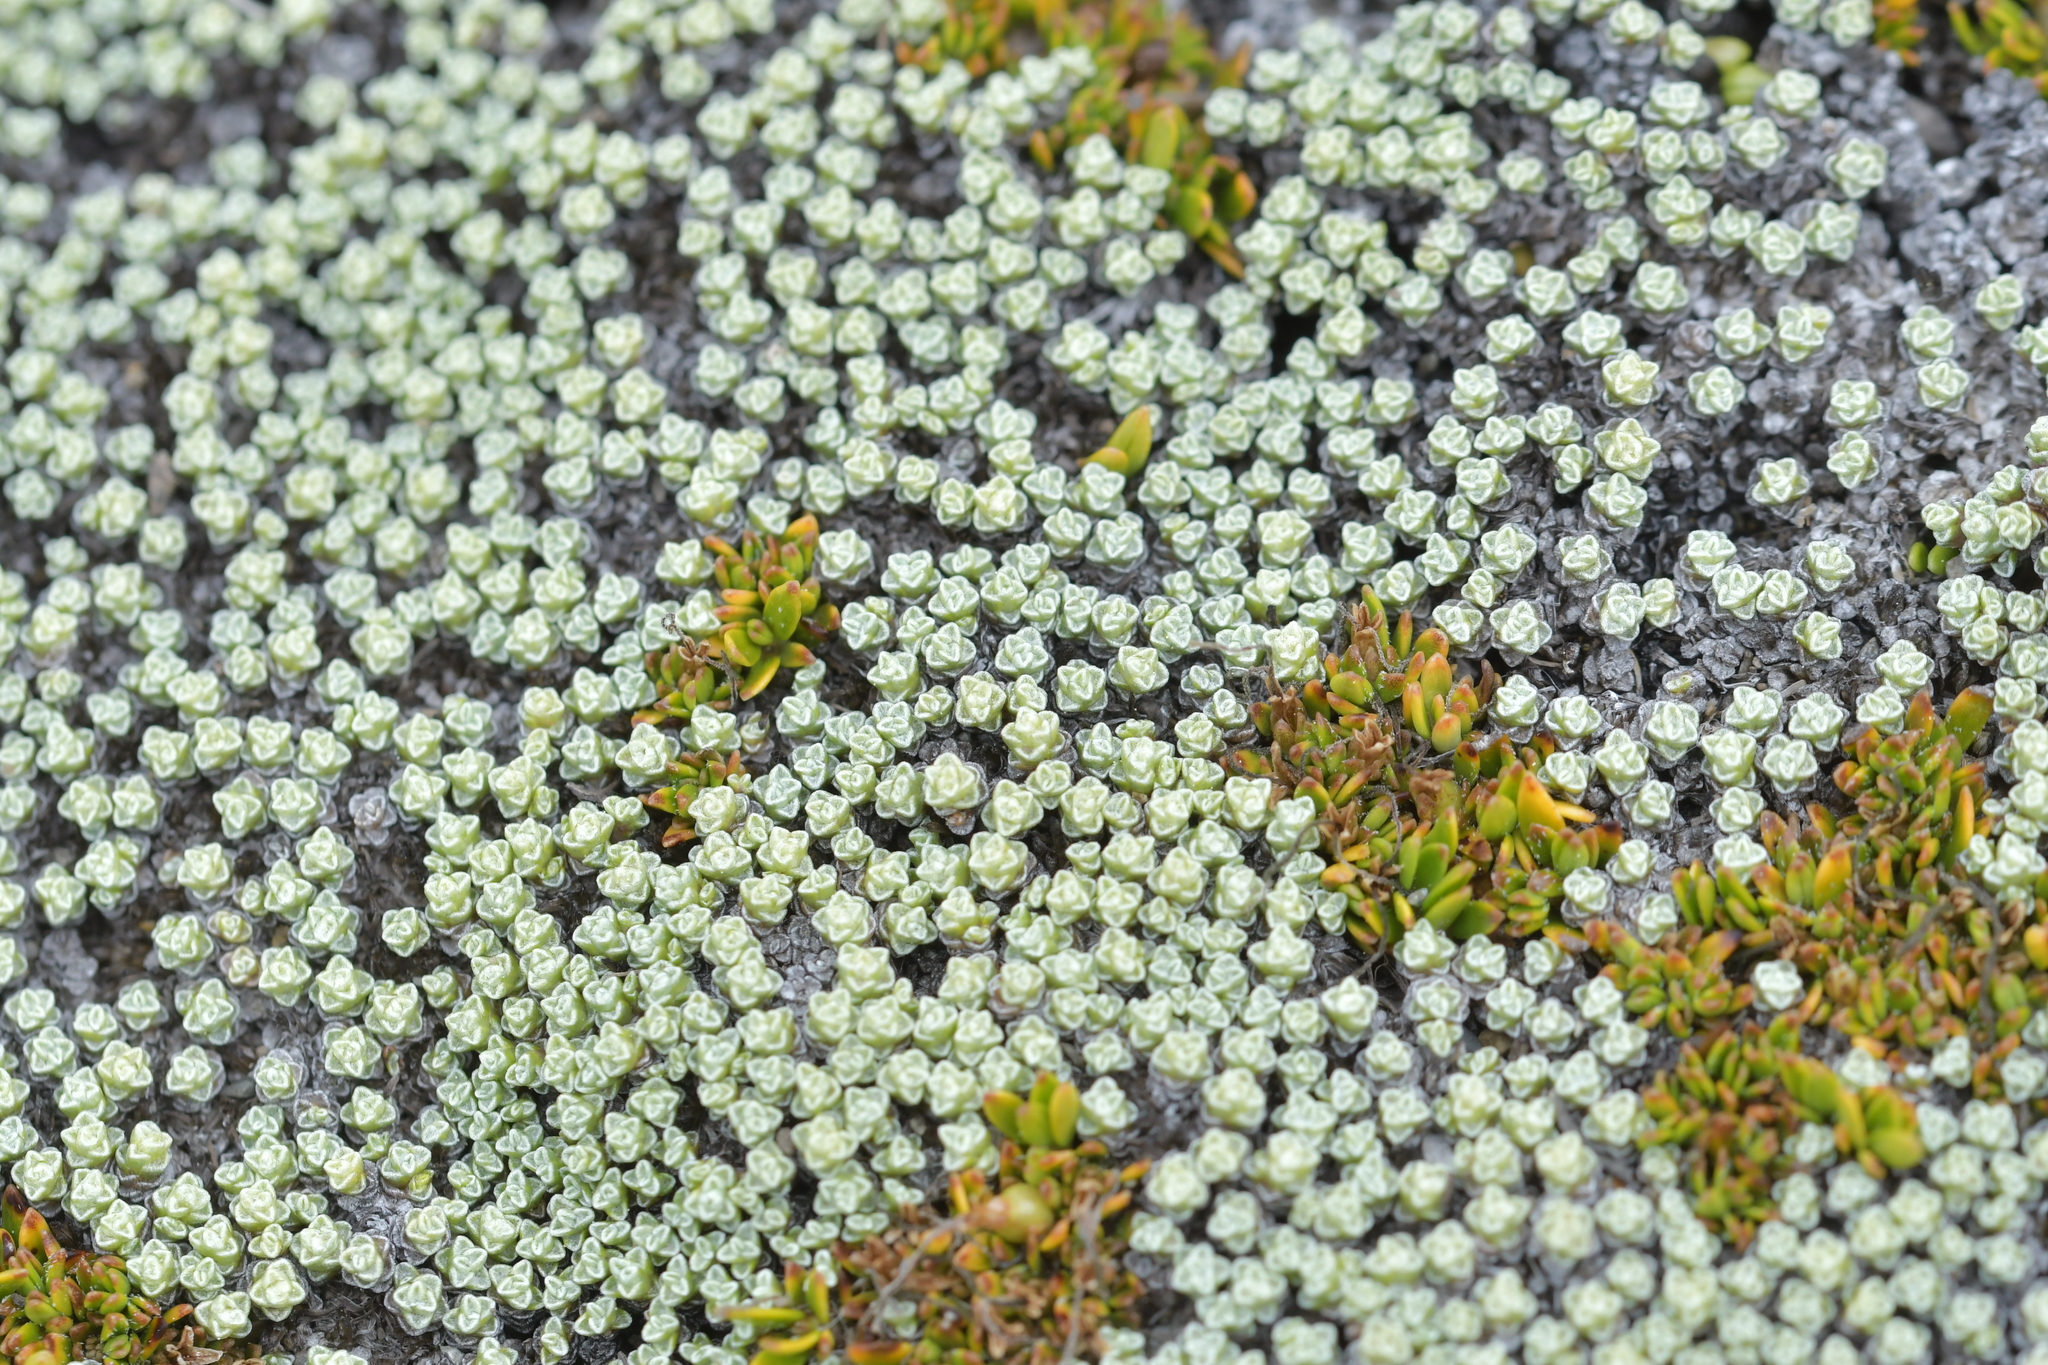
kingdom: Plantae
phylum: Tracheophyta
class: Magnoliopsida
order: Asterales
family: Asteraceae
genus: Raoulia
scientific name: Raoulia australis
